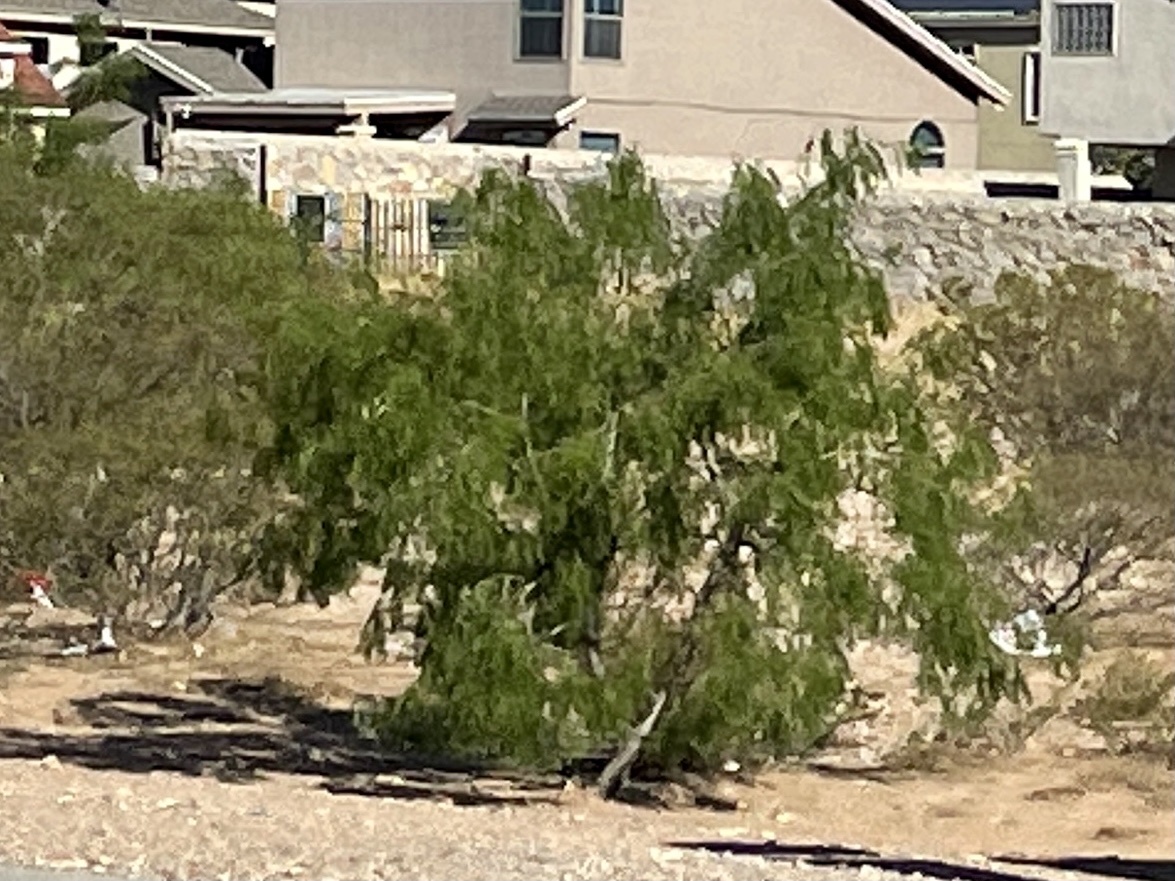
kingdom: Plantae
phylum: Tracheophyta
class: Magnoliopsida
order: Fabales
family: Fabaceae
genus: Prosopis
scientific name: Prosopis glandulosa
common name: Honey mesquite
